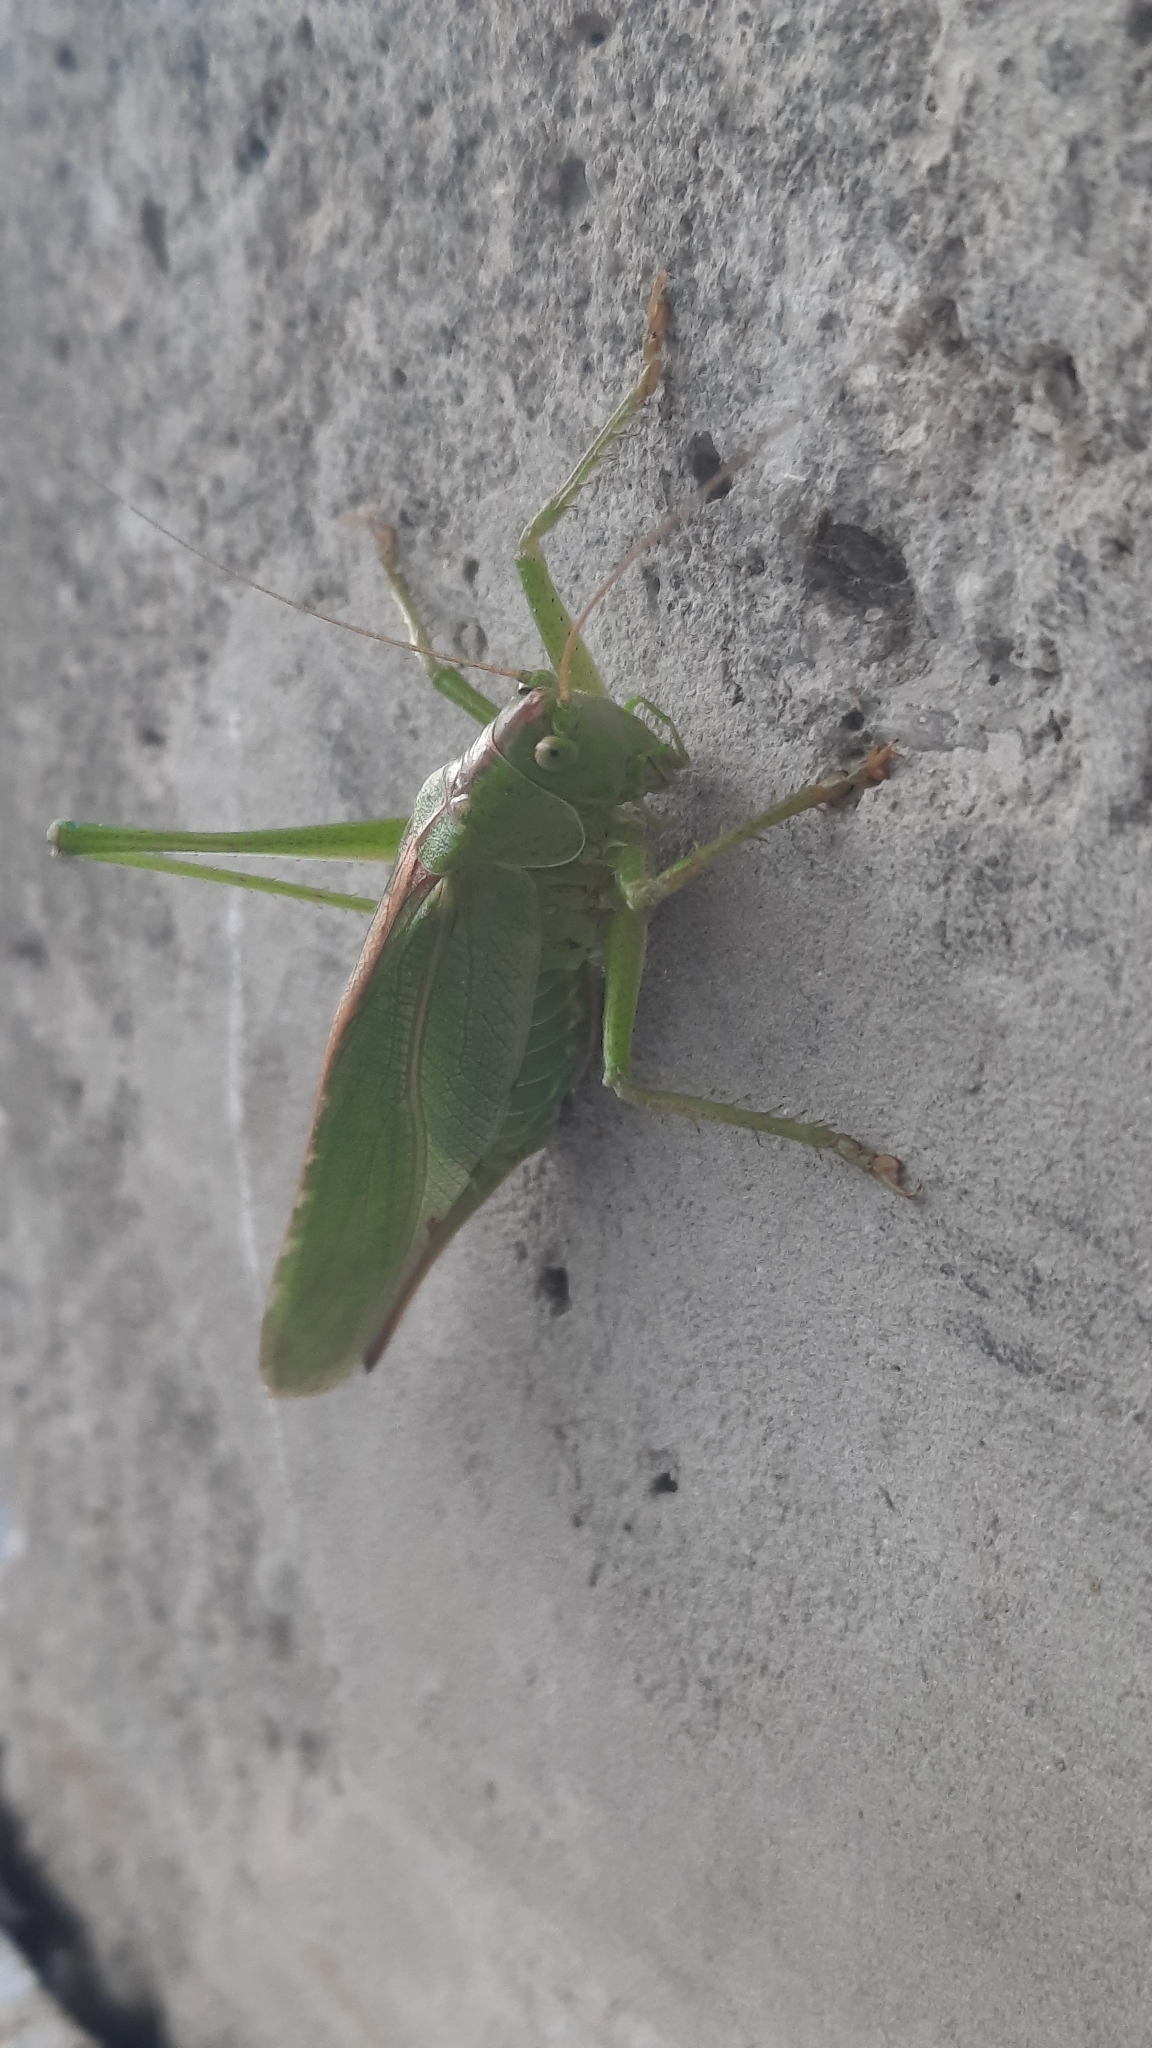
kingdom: Animalia
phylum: Arthropoda
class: Insecta
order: Orthoptera
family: Tettigoniidae
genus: Tettigonia
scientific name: Tettigonia viridissima
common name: Great green bush-cricket
